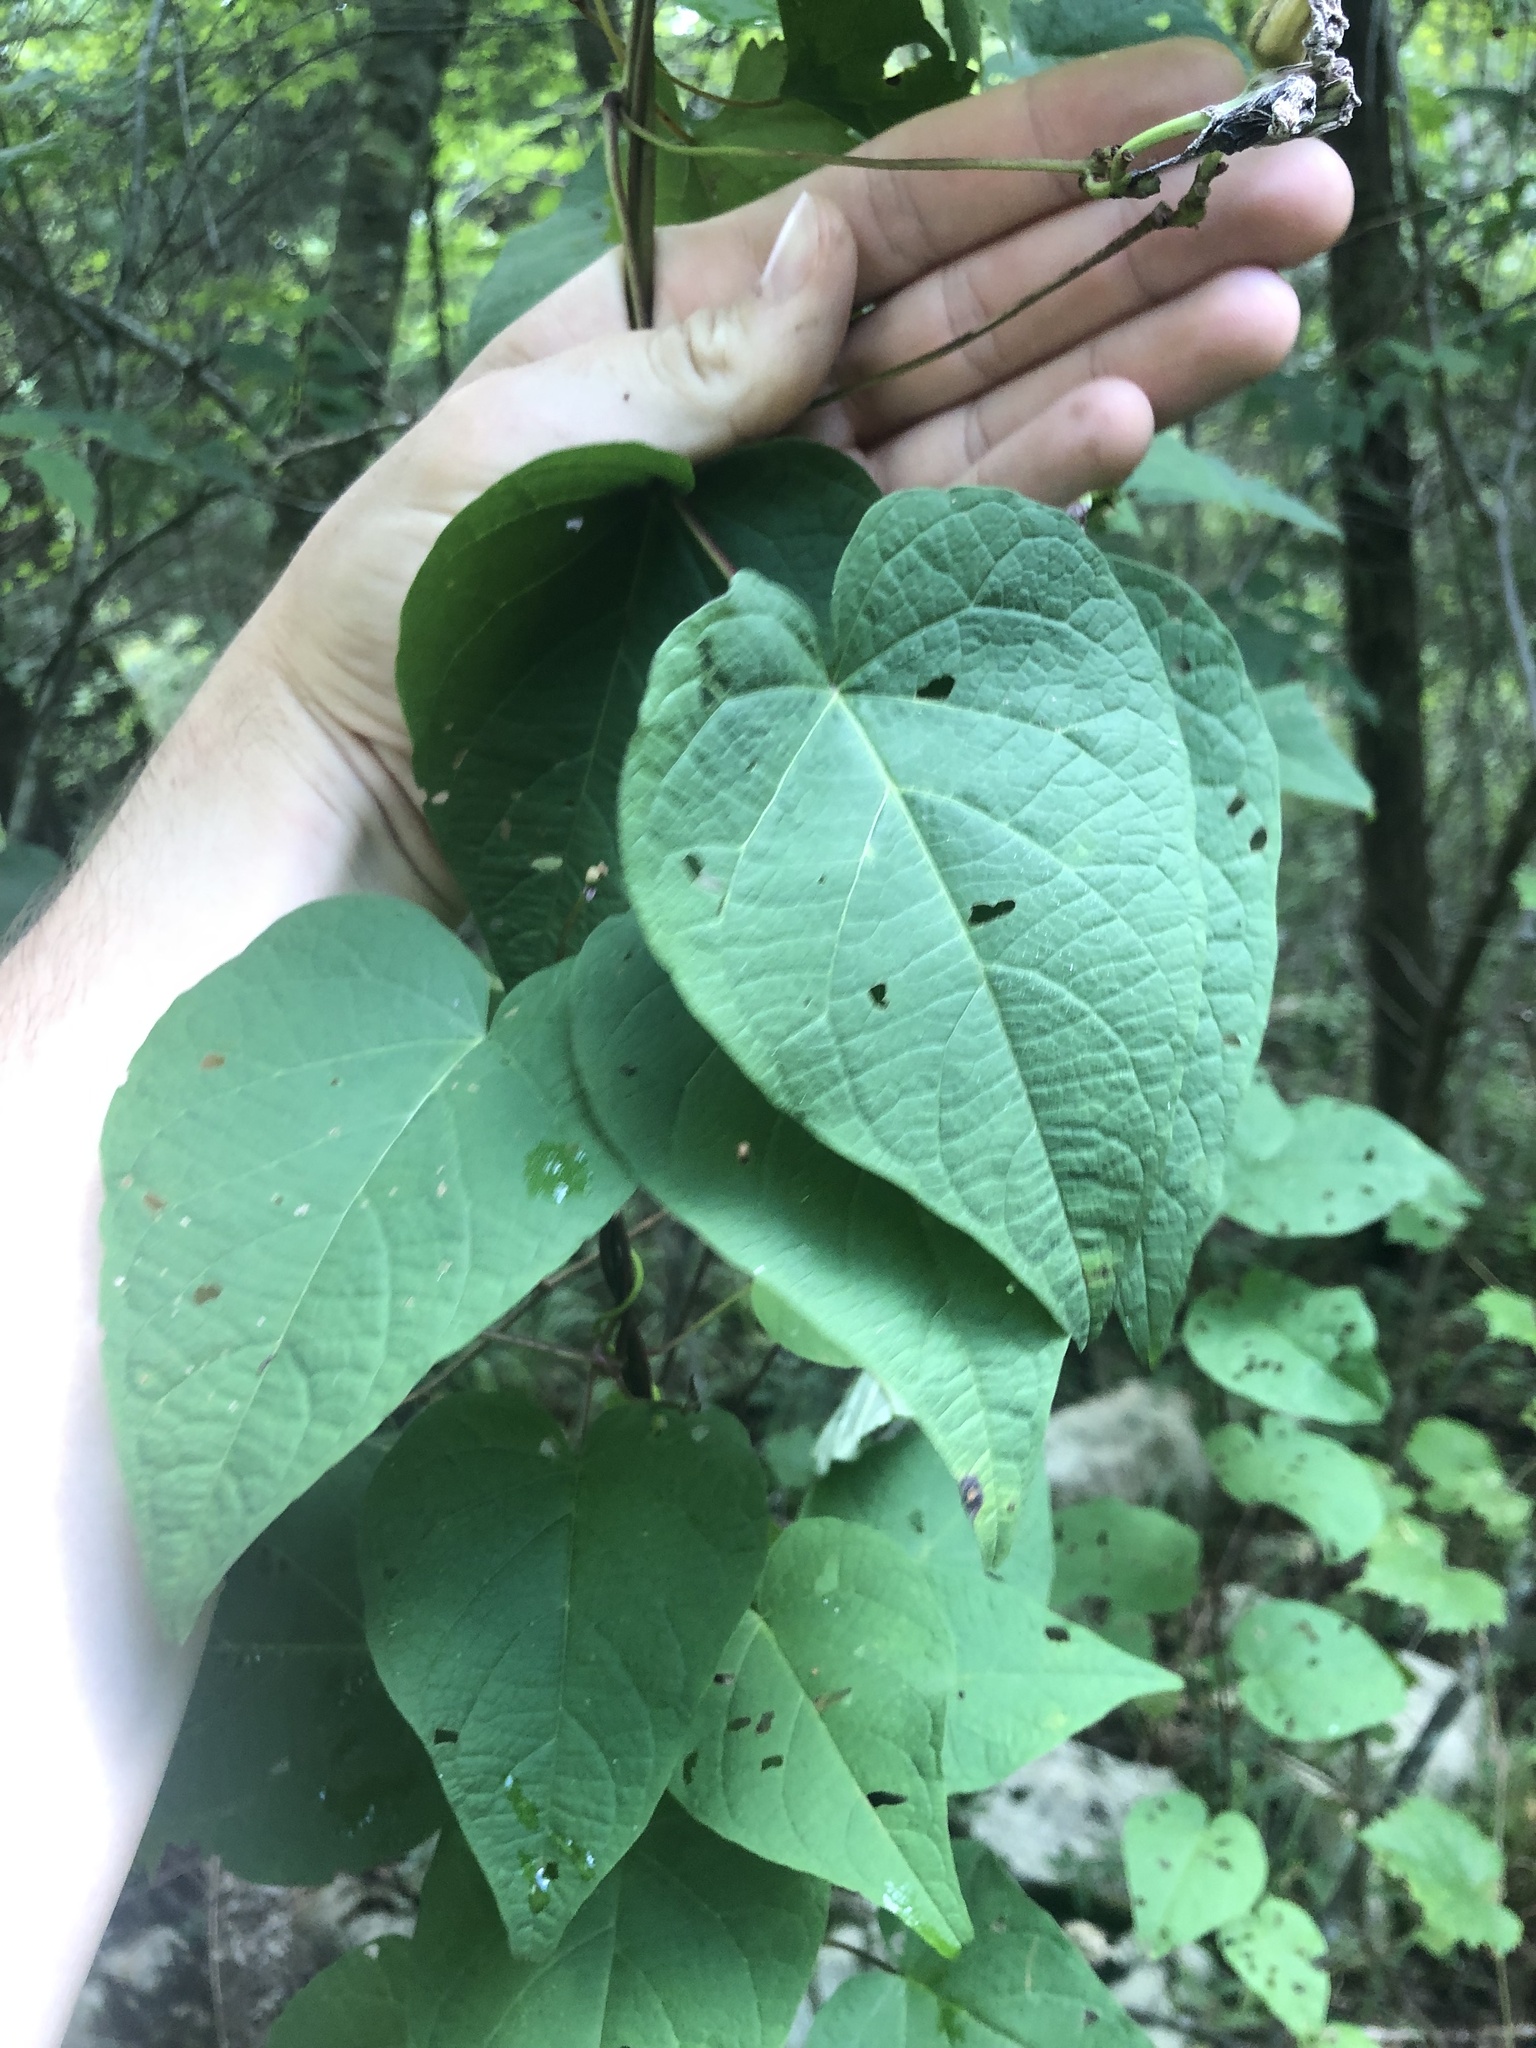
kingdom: Plantae
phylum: Tracheophyta
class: Magnoliopsida
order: Solanales
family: Convolvulaceae
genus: Ipomoea
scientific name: Ipomoea pandurata
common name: Man-of-the-earth
